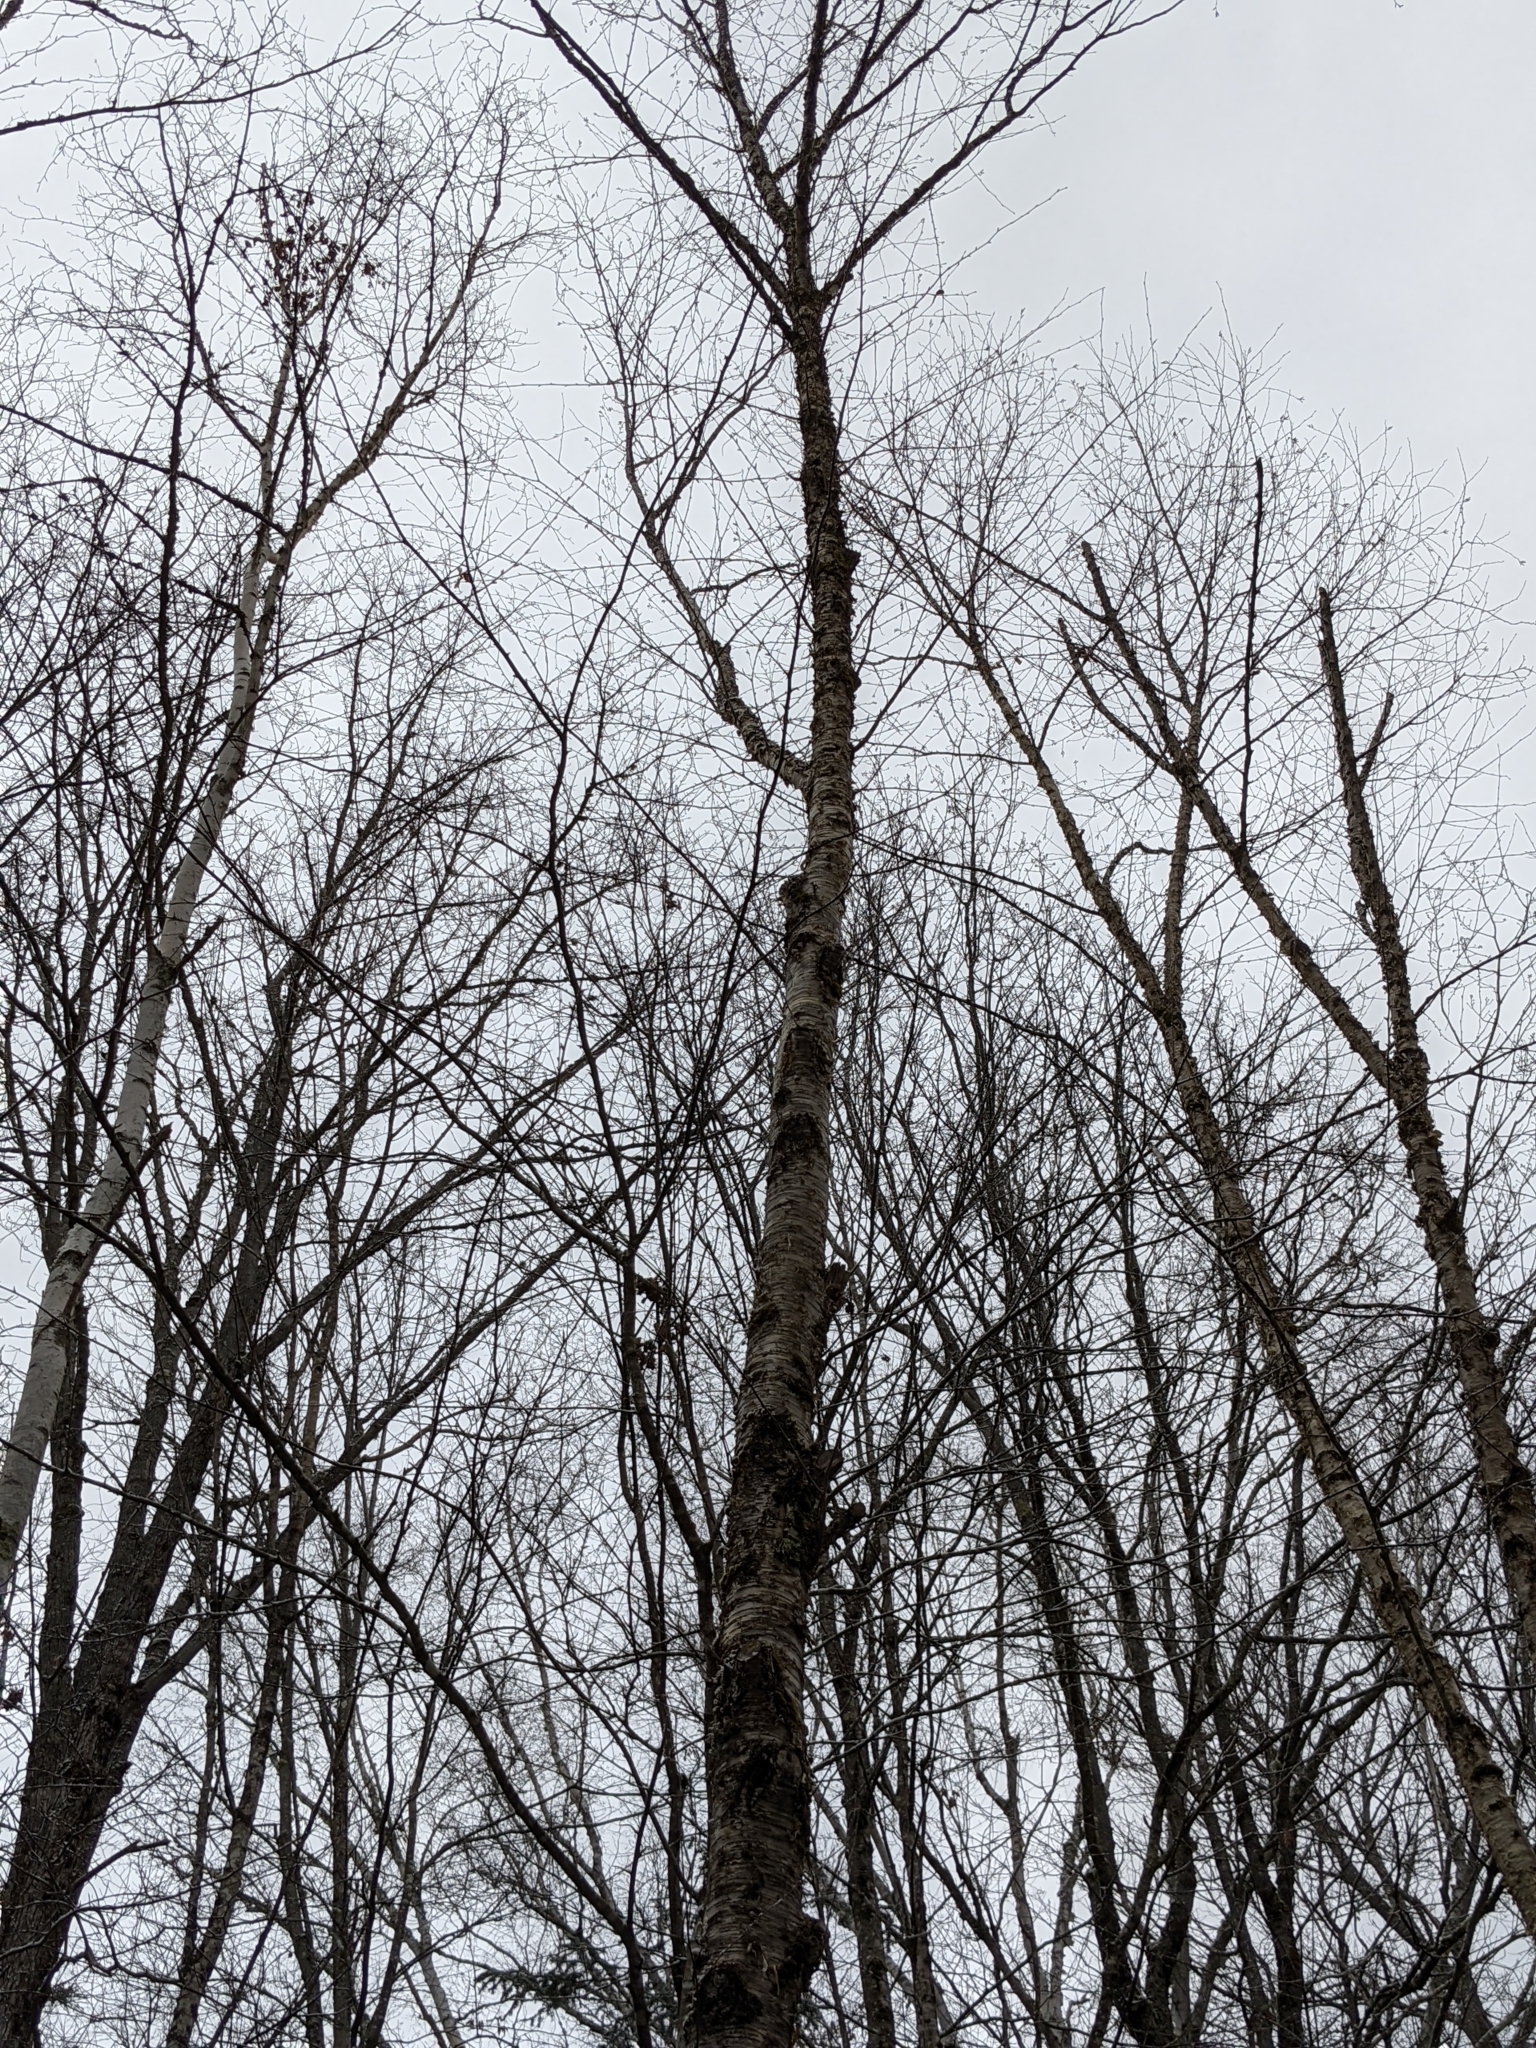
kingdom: Plantae
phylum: Tracheophyta
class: Magnoliopsida
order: Fagales
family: Betulaceae
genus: Betula
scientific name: Betula alleghaniensis
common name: Yellow birch
